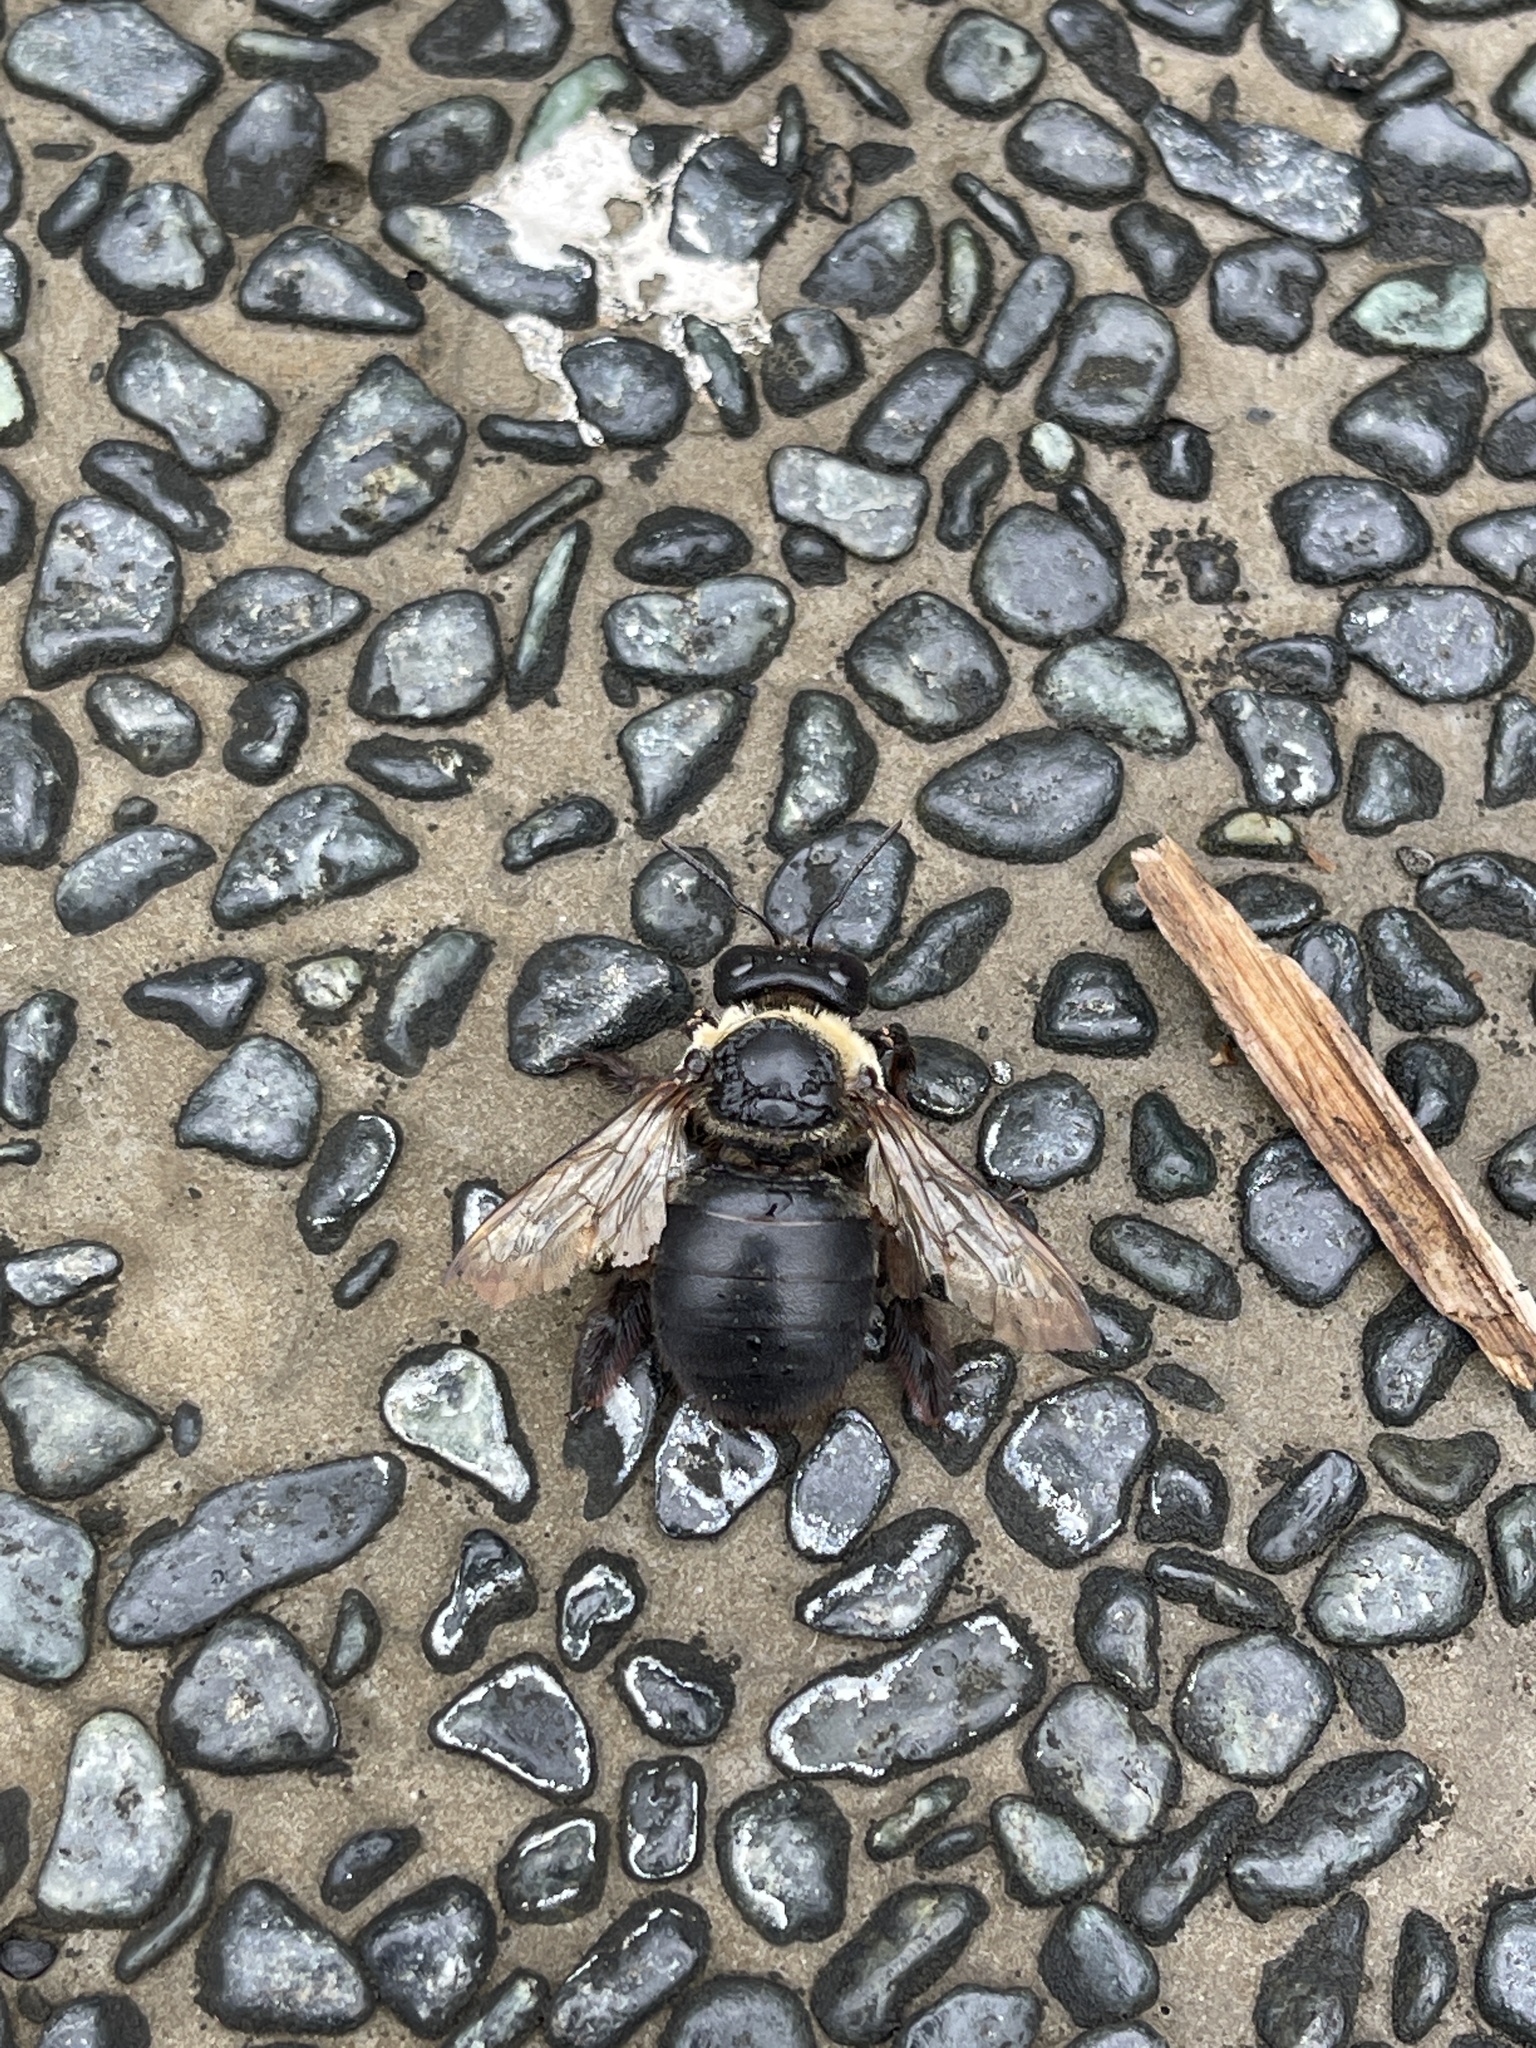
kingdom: Animalia
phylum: Arthropoda
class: Insecta
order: Hymenoptera
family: Apidae
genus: Xylocopa
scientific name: Xylocopa dejeanii
